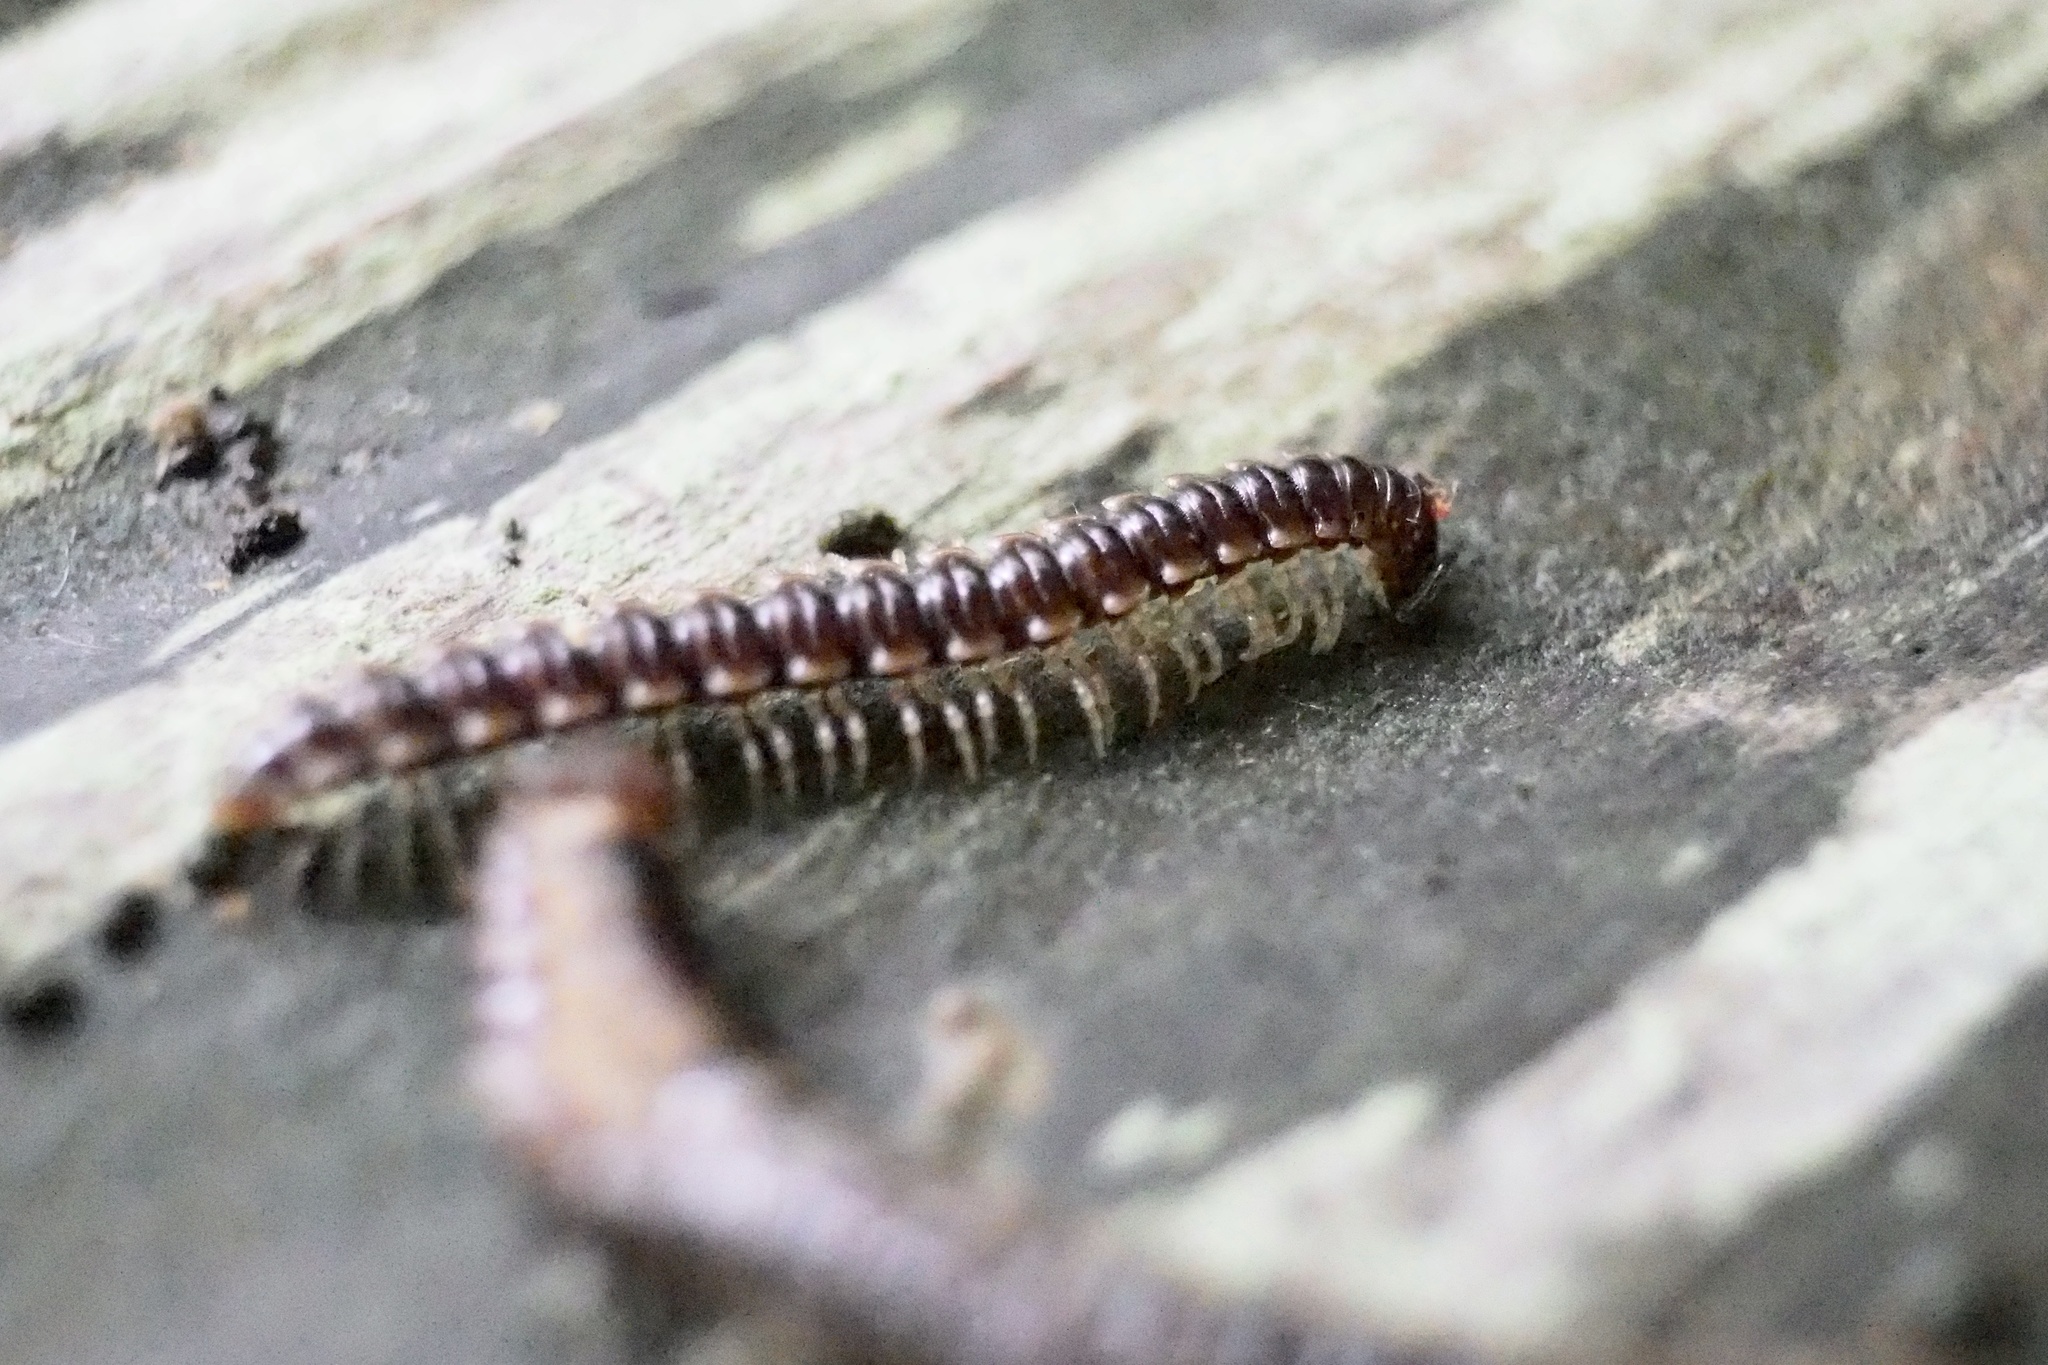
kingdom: Animalia
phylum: Arthropoda
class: Diplopoda
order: Polydesmida
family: Paradoxosomatidae
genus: Oxidus
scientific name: Oxidus gracilis
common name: Greenhouse millipede
